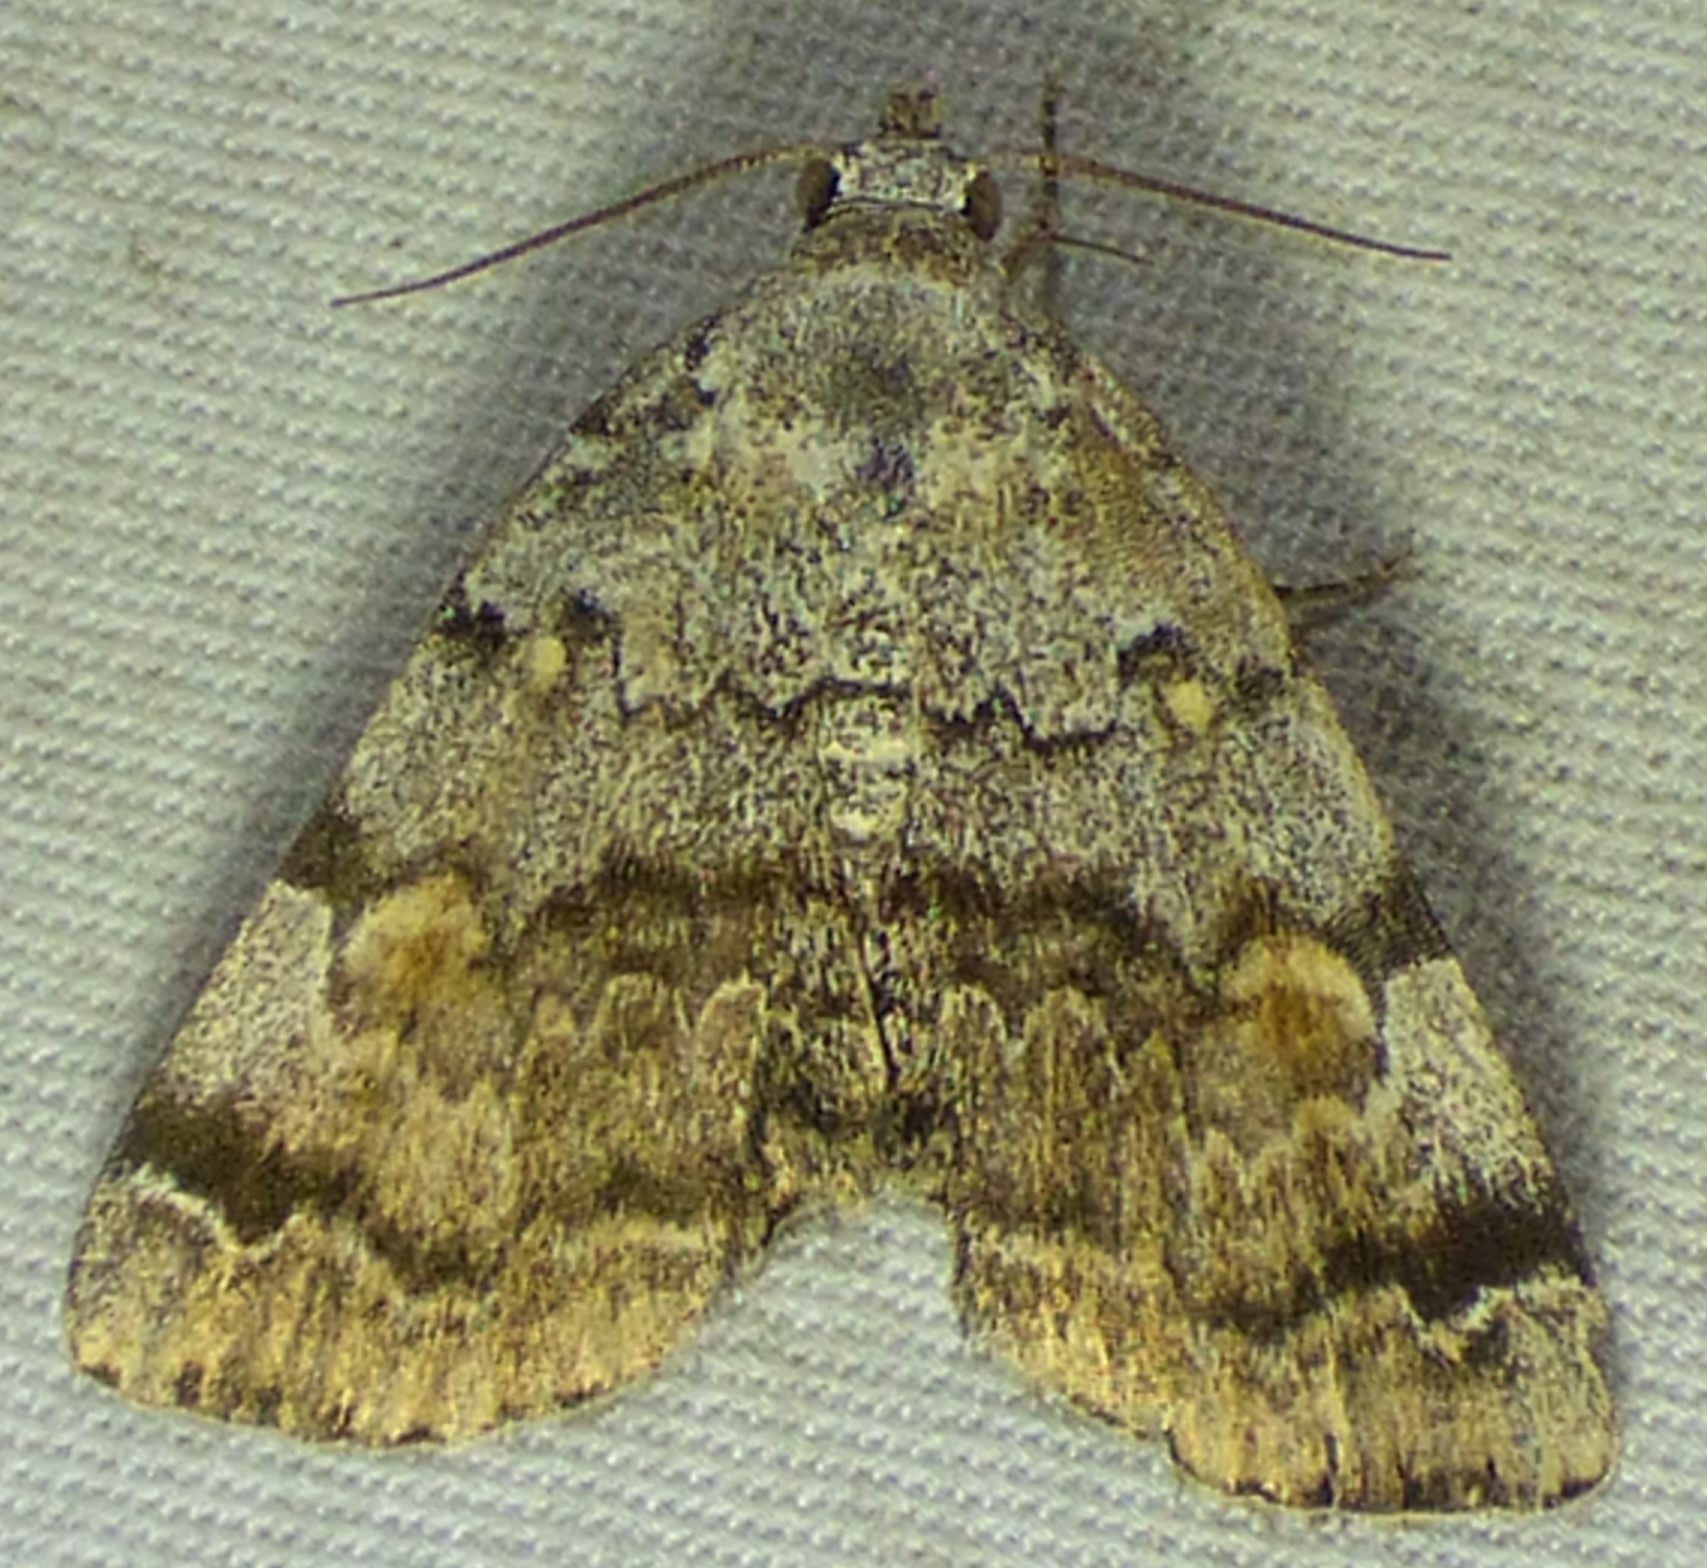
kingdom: Animalia
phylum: Arthropoda
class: Insecta
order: Lepidoptera
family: Erebidae
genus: Idia
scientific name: Idia americalis
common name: American idia moth
